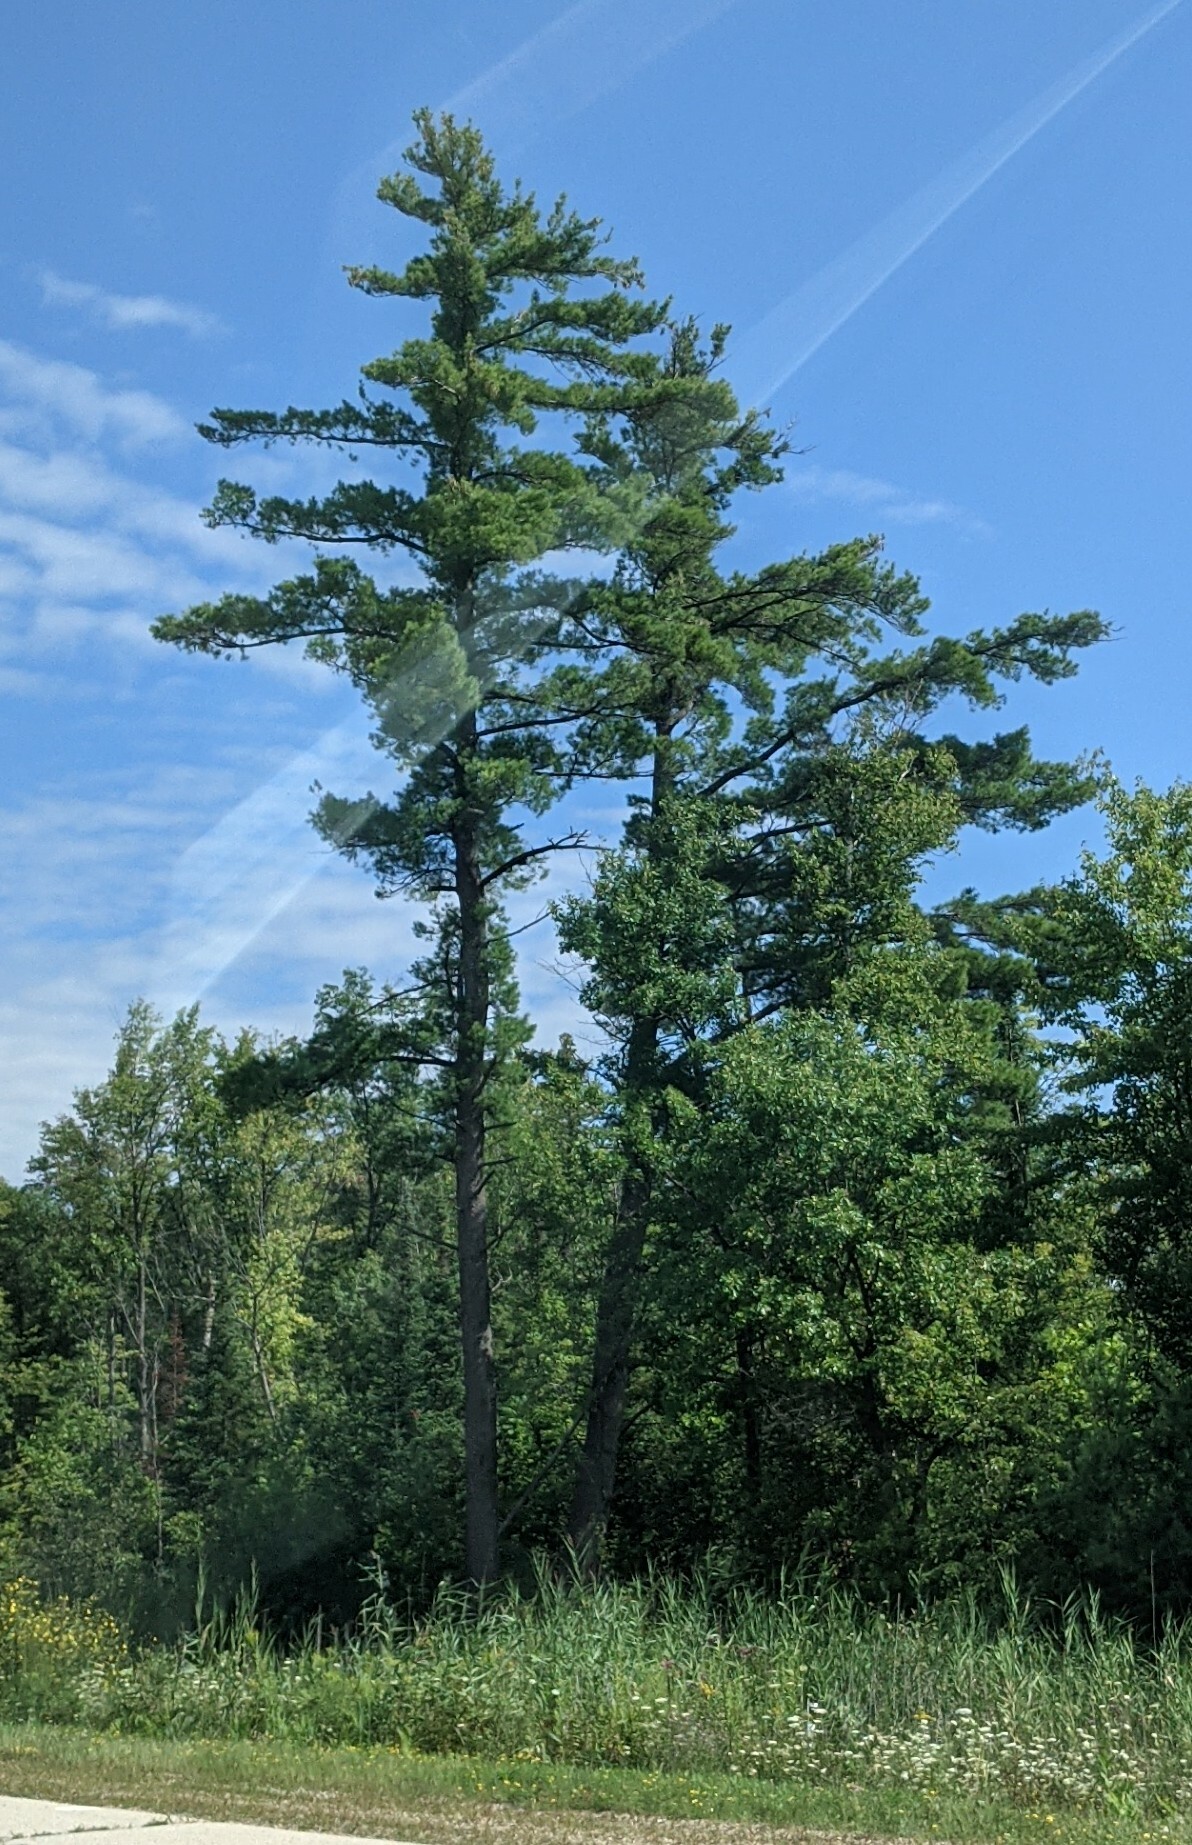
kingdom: Plantae
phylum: Tracheophyta
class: Pinopsida
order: Pinales
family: Pinaceae
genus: Pinus
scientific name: Pinus strobus
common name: Weymouth pine
